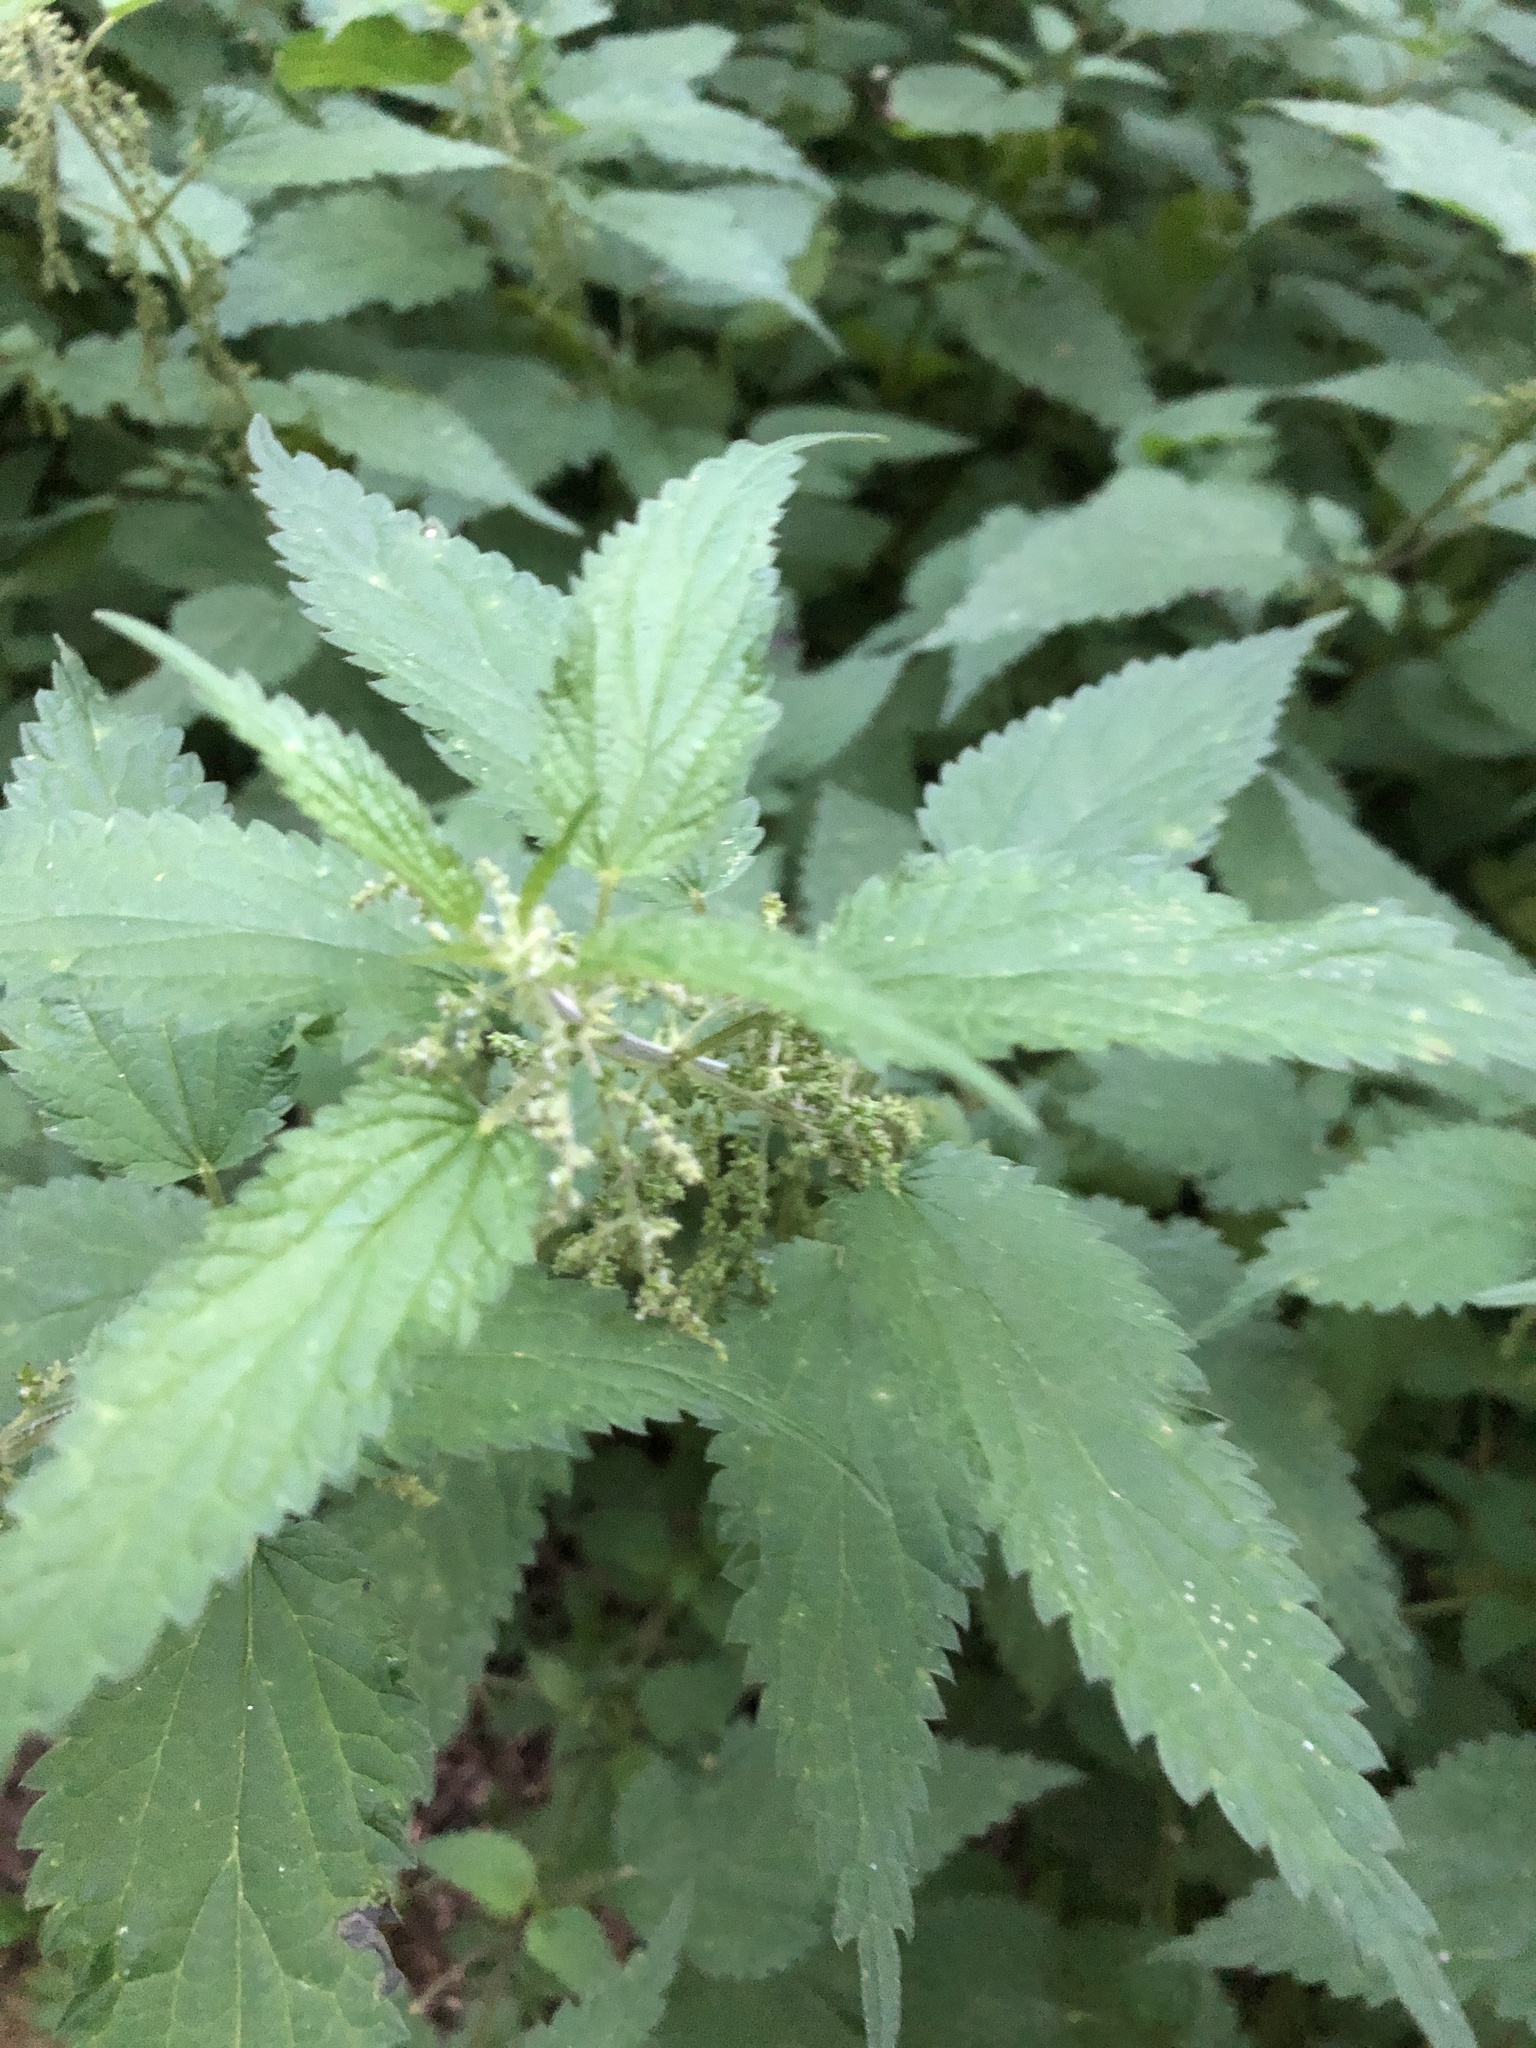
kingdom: Plantae
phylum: Tracheophyta
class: Magnoliopsida
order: Rosales
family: Urticaceae
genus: Urtica
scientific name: Urtica dioica
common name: Common nettle
